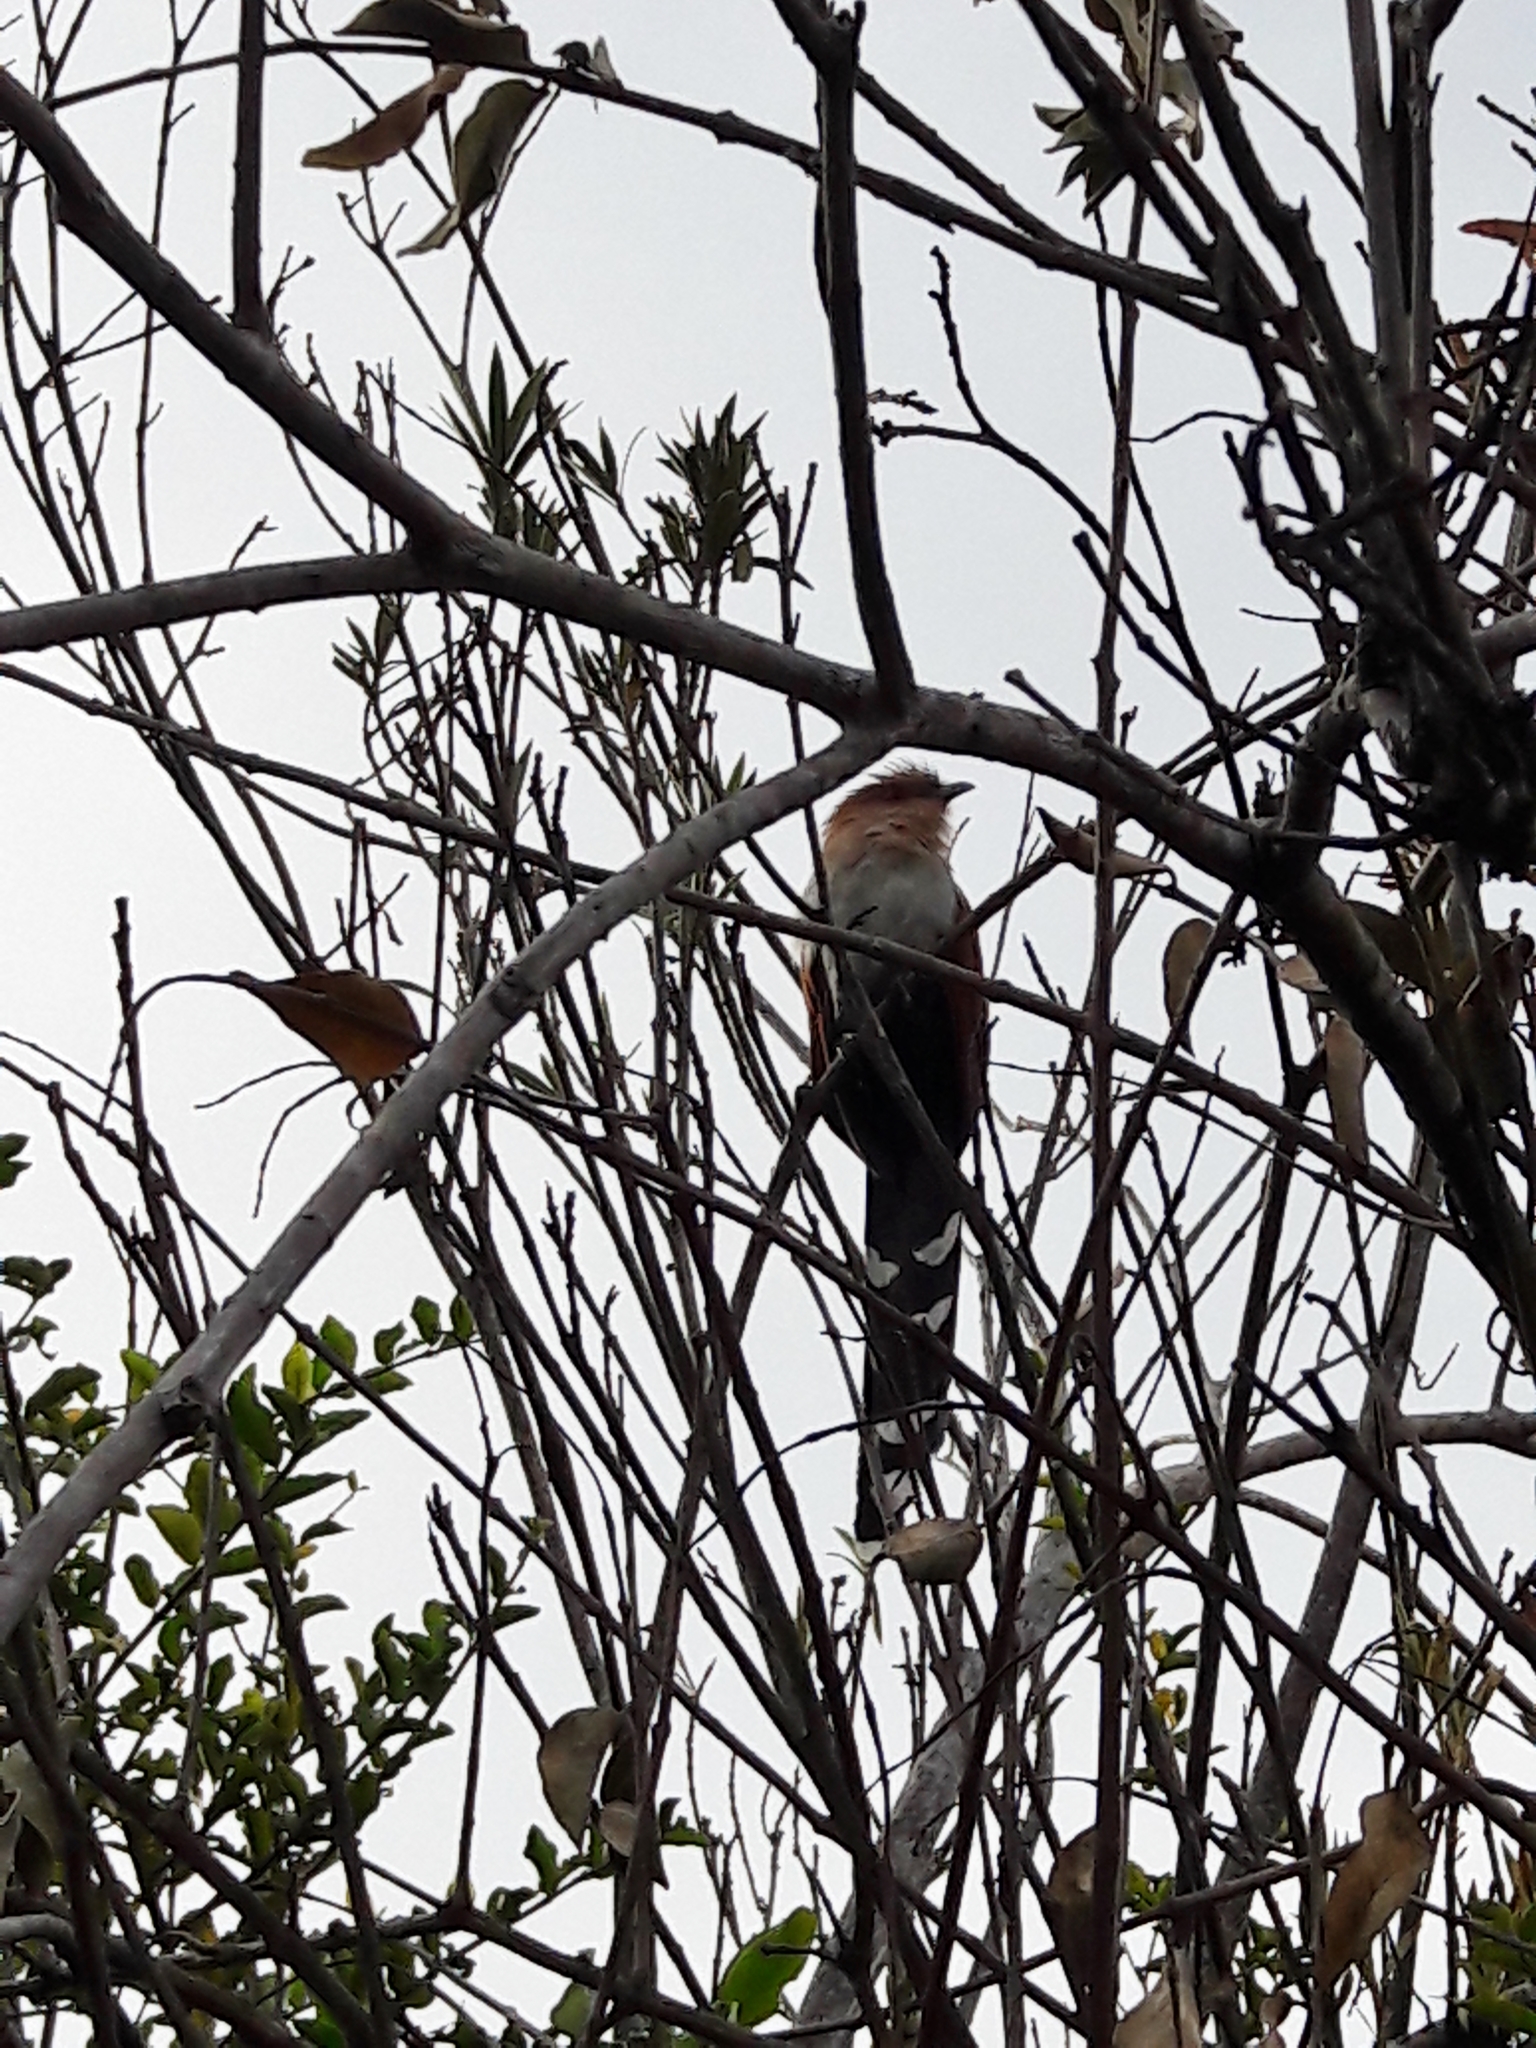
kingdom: Animalia
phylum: Chordata
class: Aves
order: Cuculiformes
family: Cuculidae
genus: Piaya
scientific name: Piaya cayana
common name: Squirrel cuckoo
